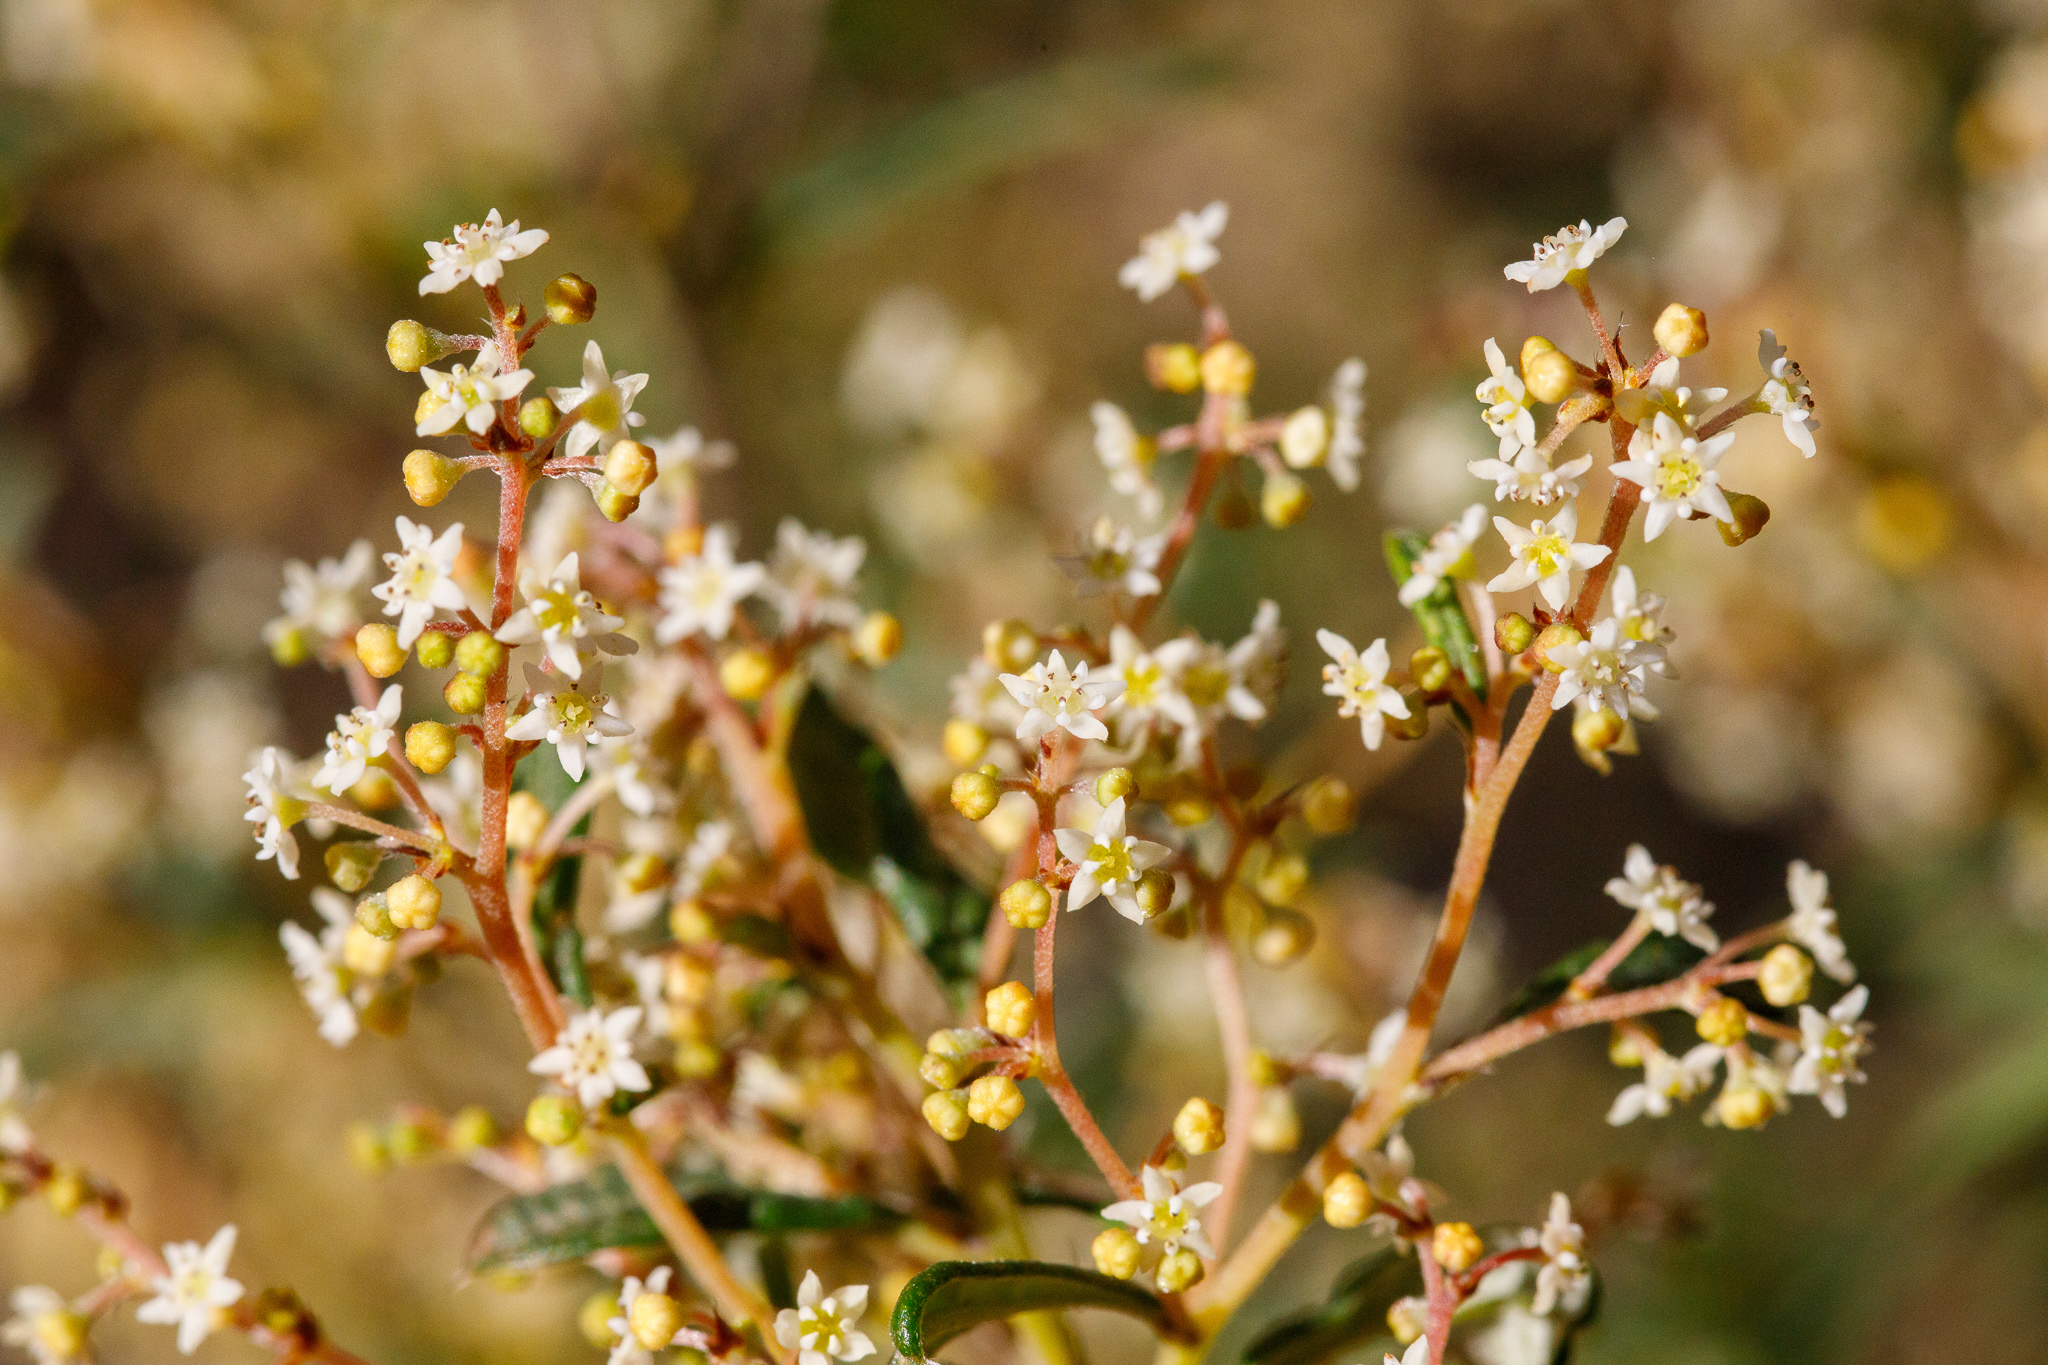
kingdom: Plantae
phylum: Tracheophyta
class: Magnoliopsida
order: Rosales
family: Rhamnaceae
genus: Trymalium
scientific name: Trymalium ledifolium
